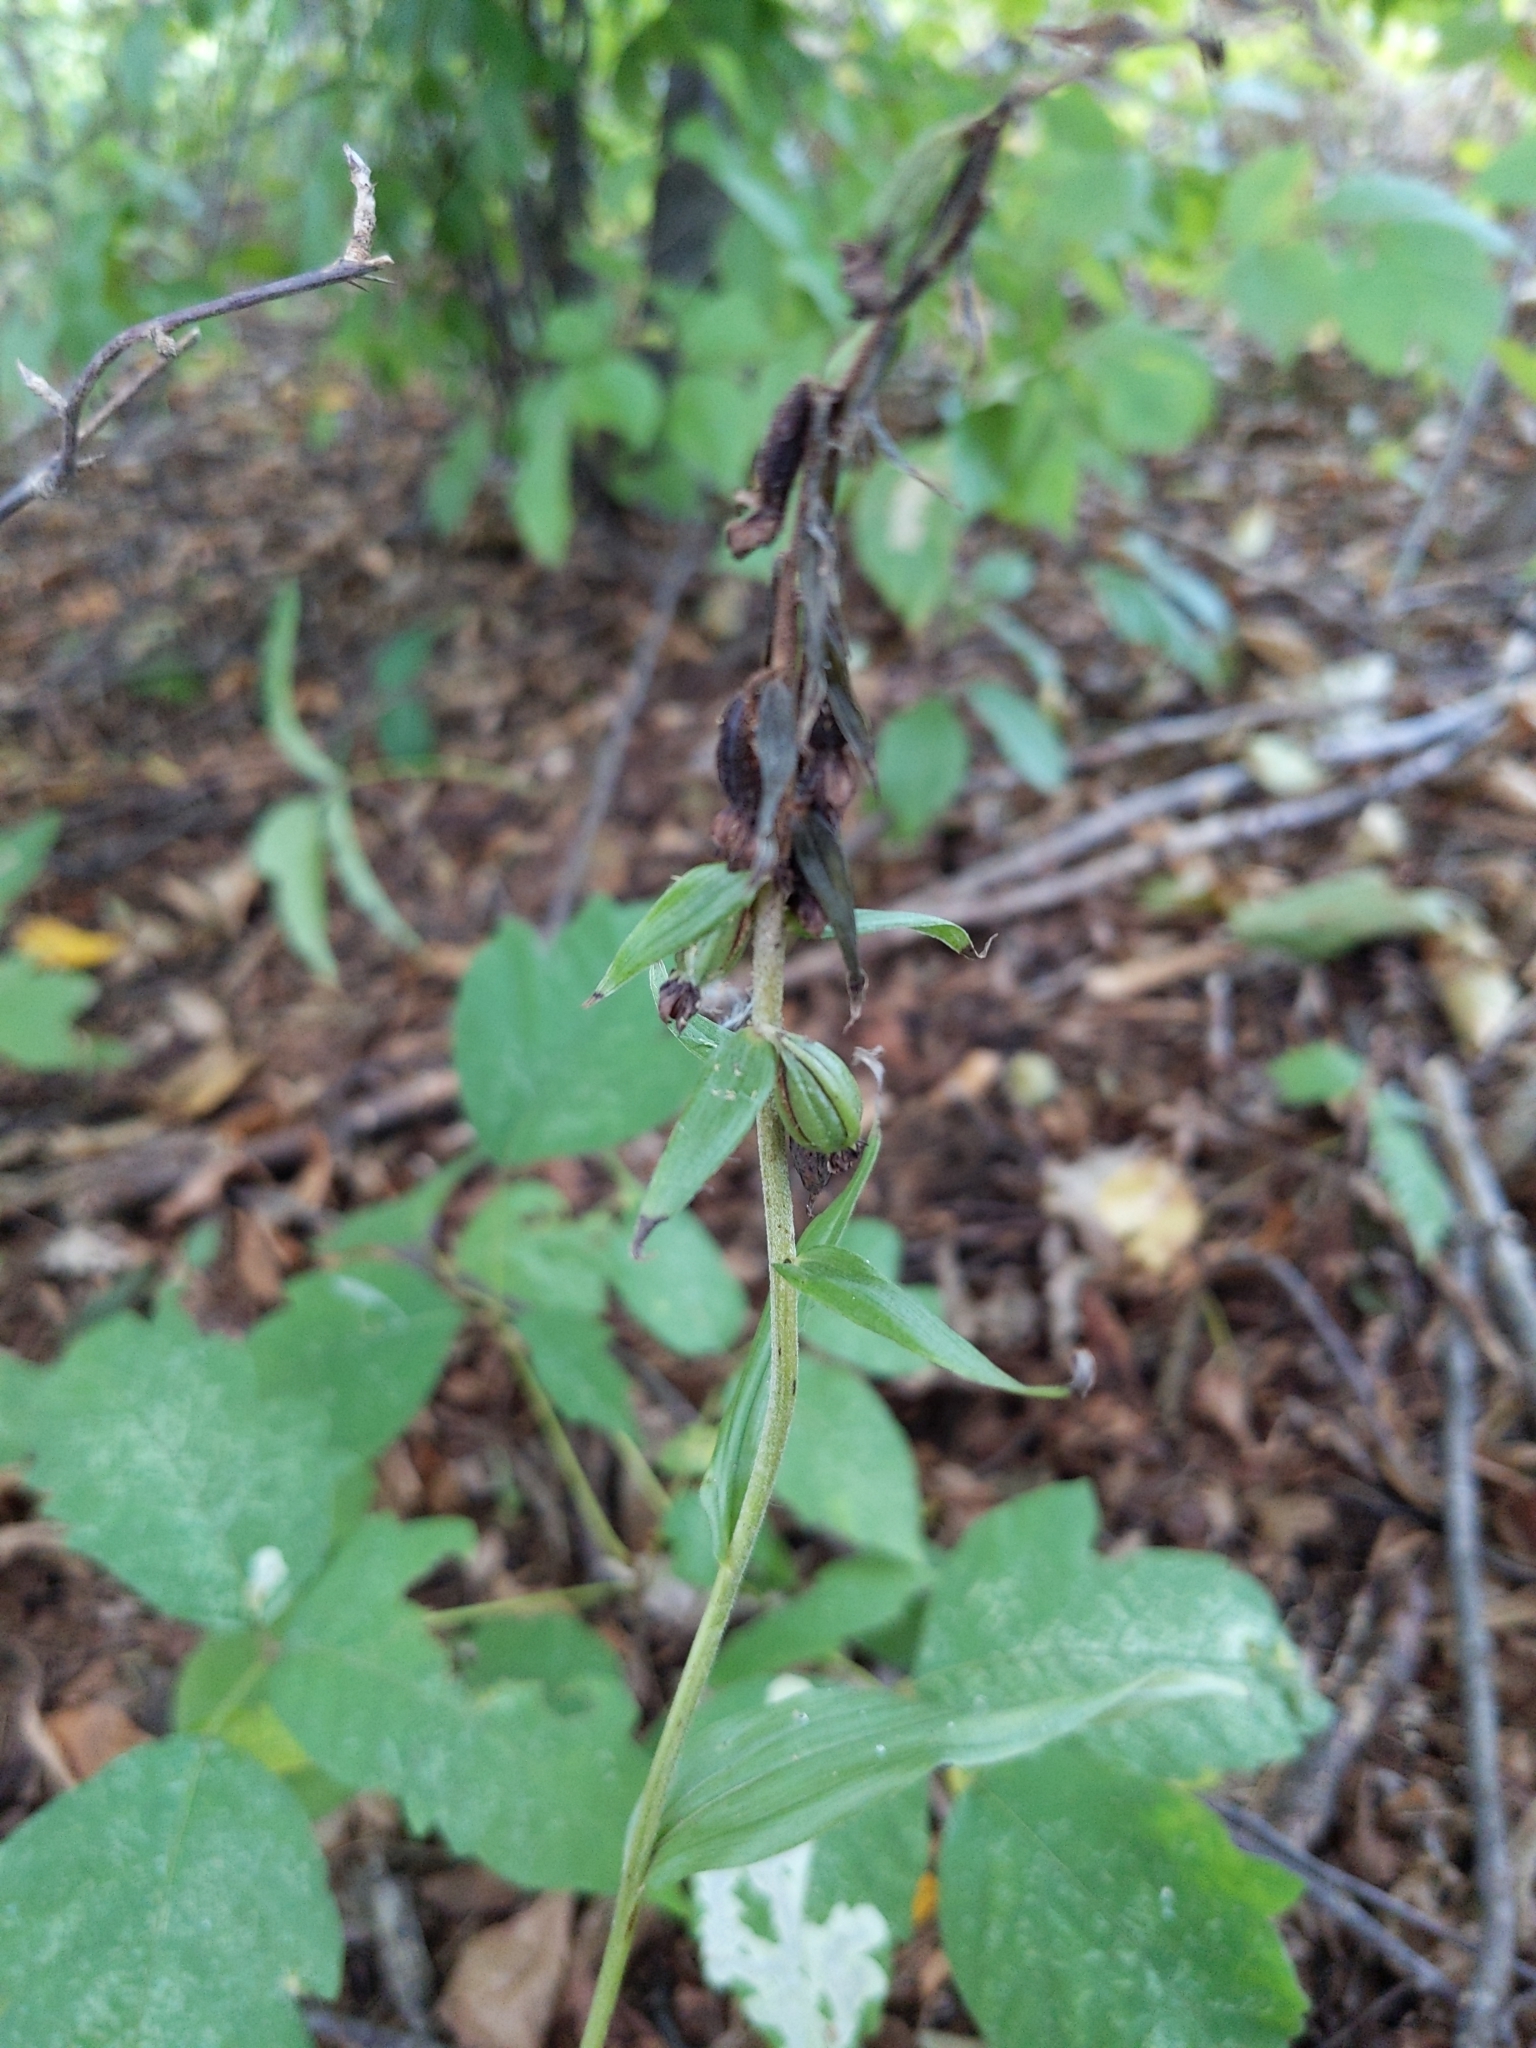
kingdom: Plantae
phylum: Tracheophyta
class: Liliopsida
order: Asparagales
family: Orchidaceae
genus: Epipactis
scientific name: Epipactis helleborine
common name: Broad-leaved helleborine
